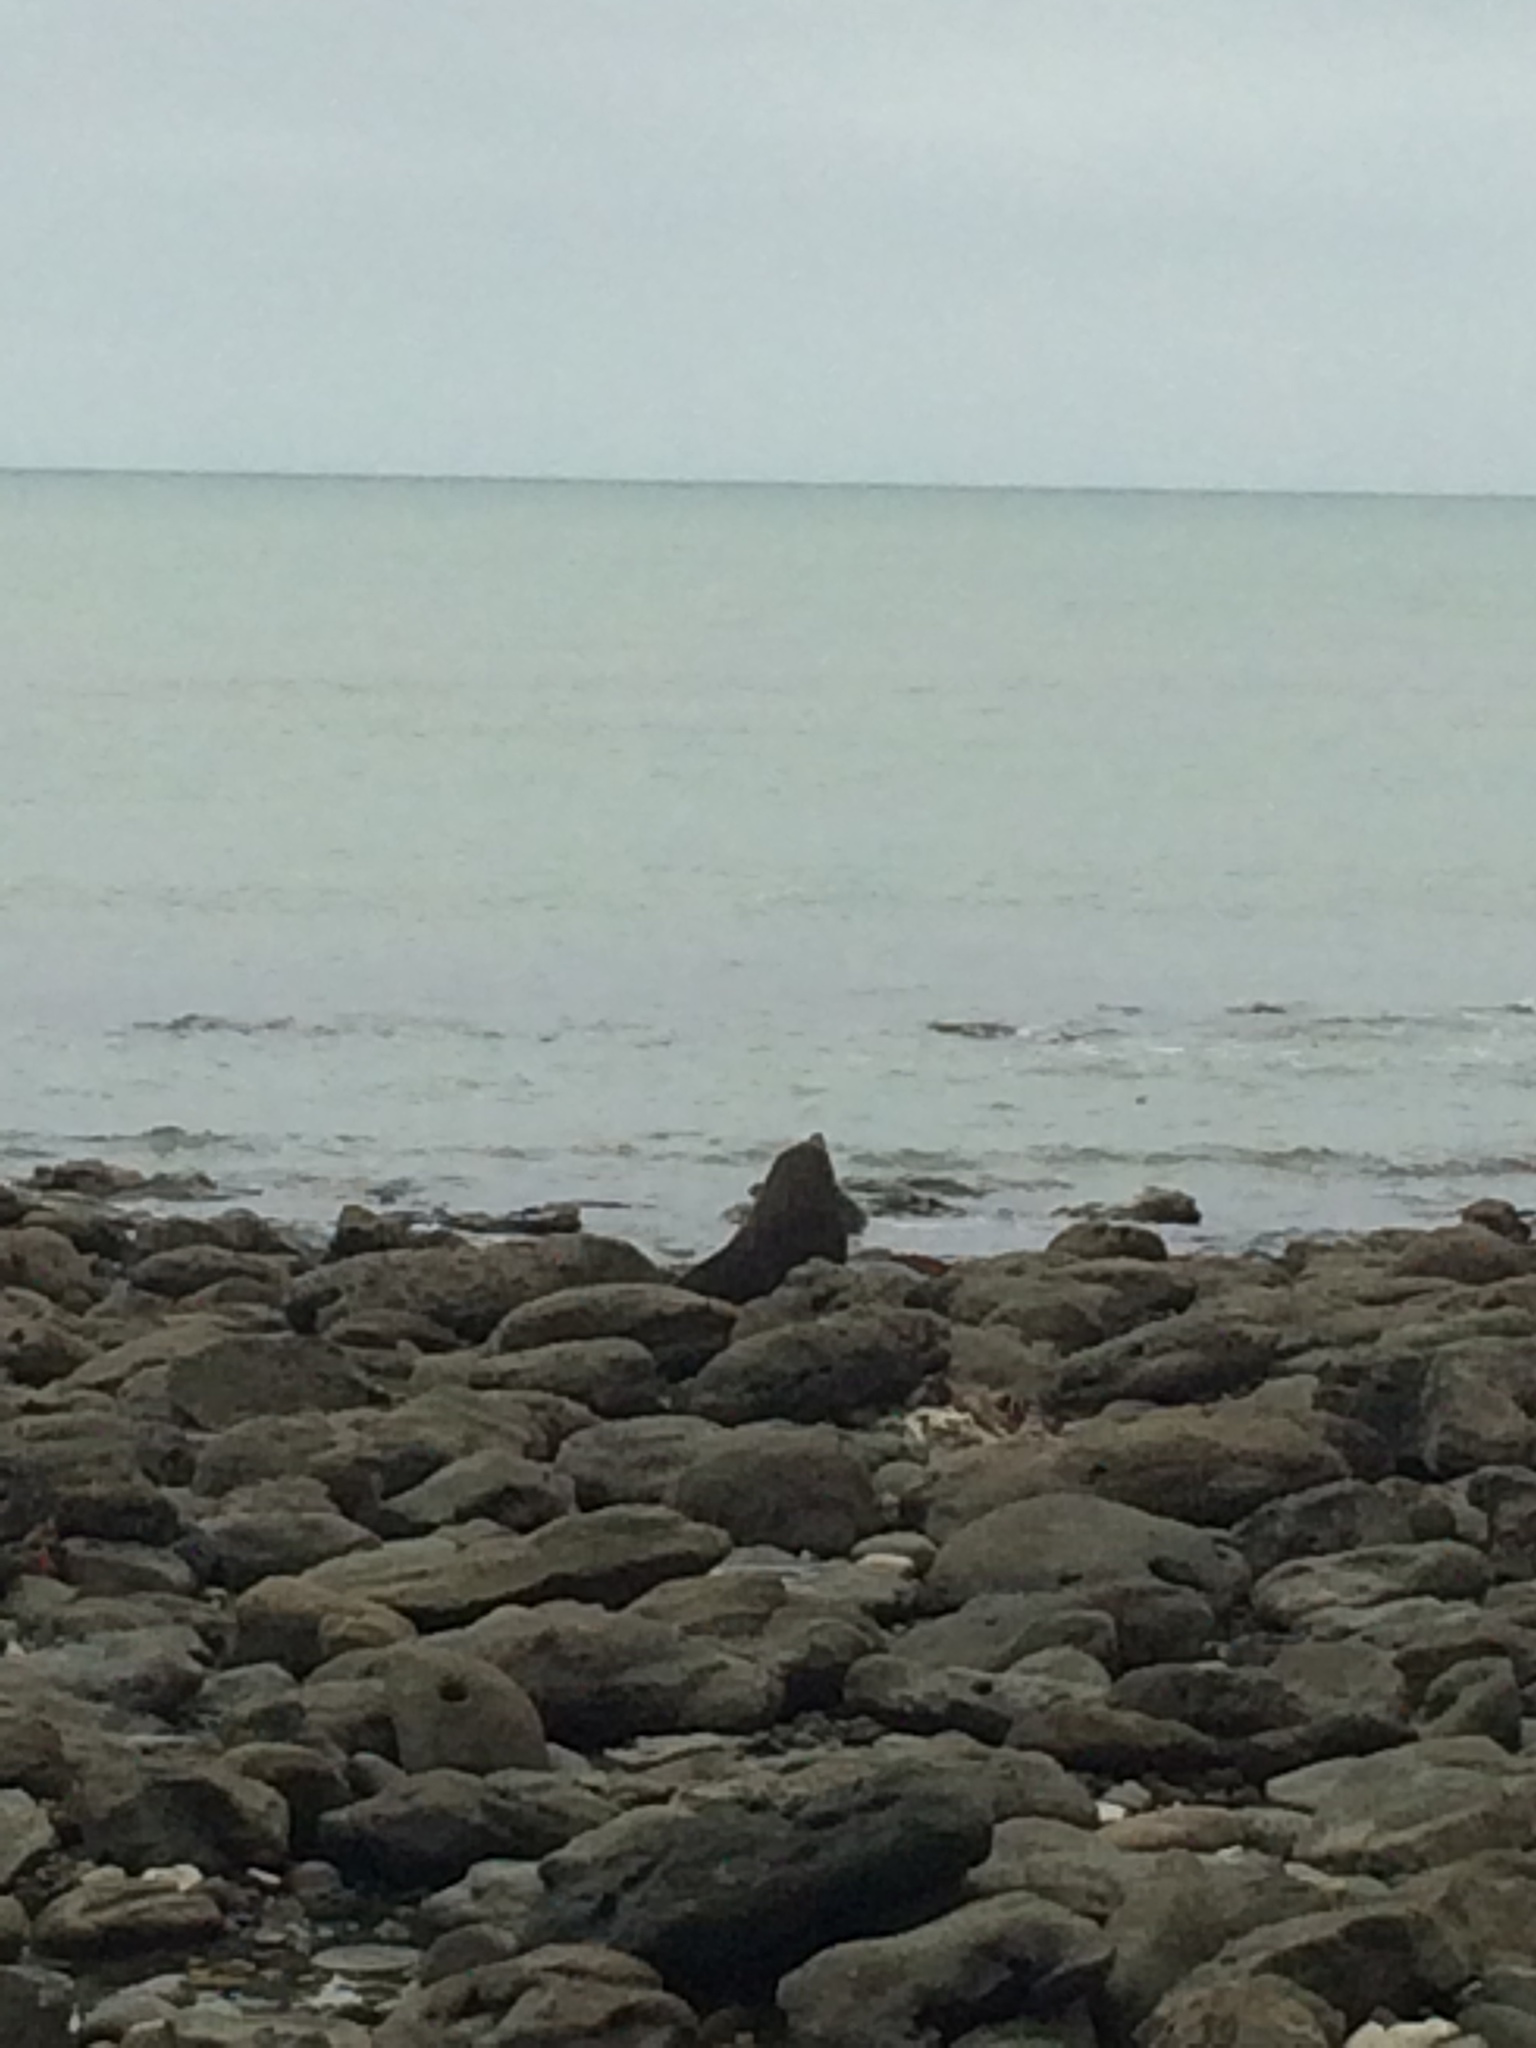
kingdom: Animalia
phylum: Chordata
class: Mammalia
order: Carnivora
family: Otariidae
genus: Arctocephalus
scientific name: Arctocephalus forsteri
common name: New zealand fur seal
